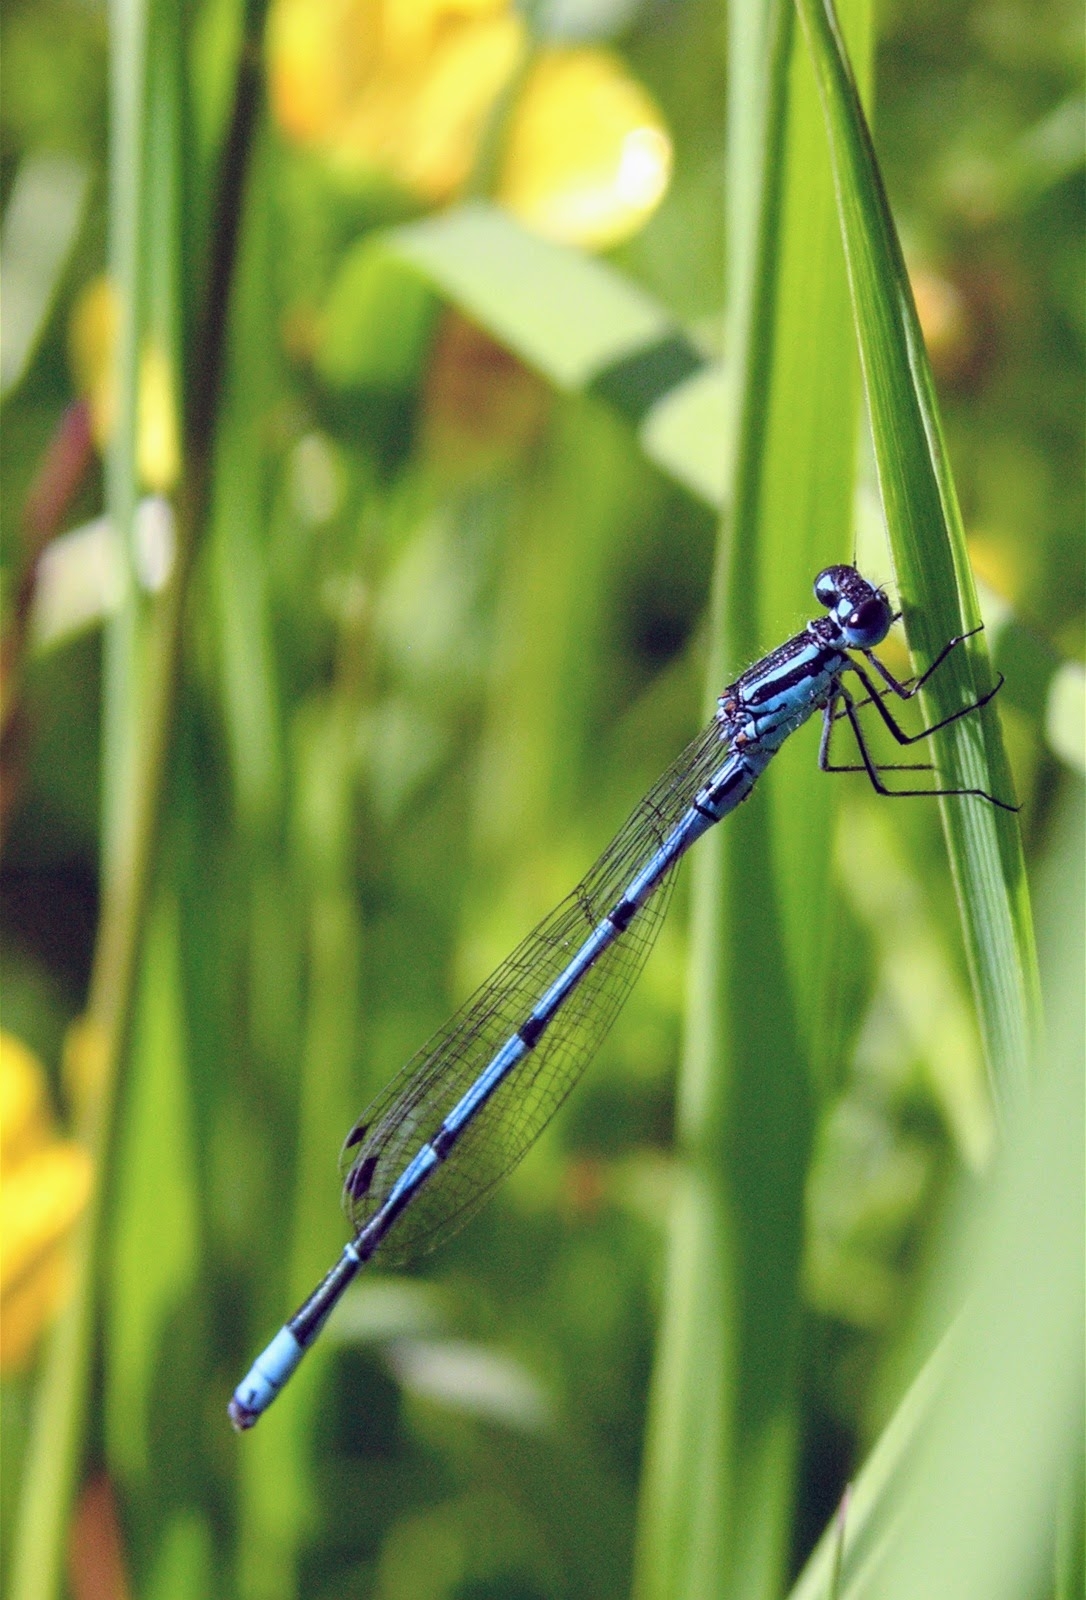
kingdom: Animalia
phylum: Arthropoda
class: Insecta
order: Odonata
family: Coenagrionidae
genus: Coenagrion
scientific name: Coenagrion puella
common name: Azure damselfly
